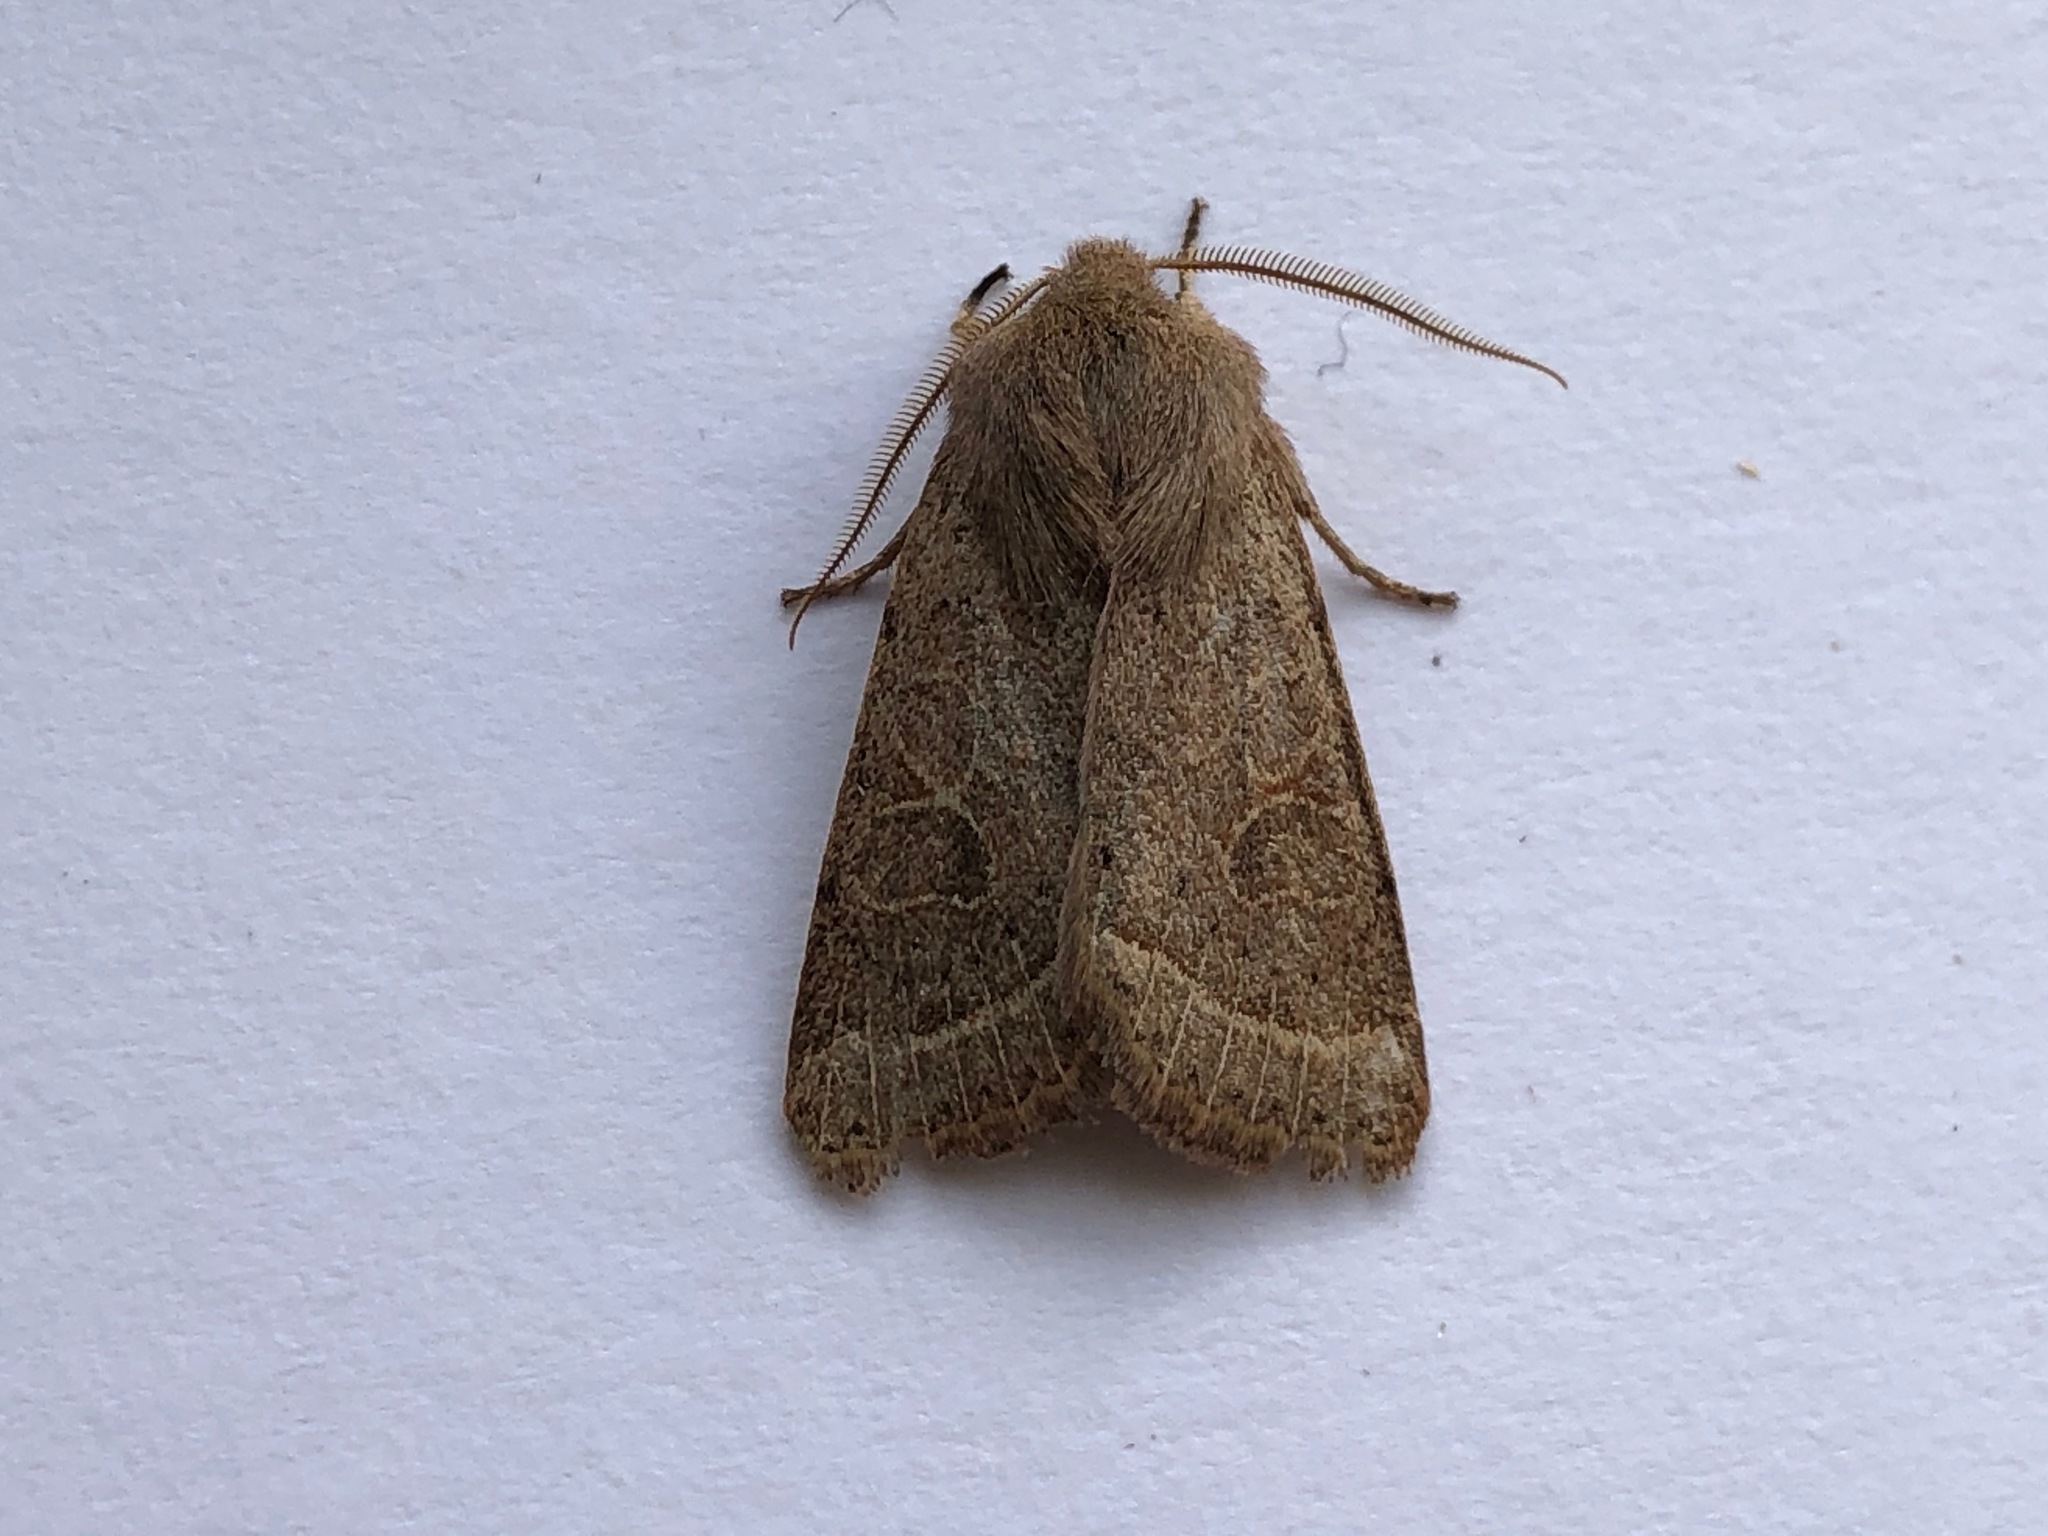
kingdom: Animalia
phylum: Arthropoda
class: Insecta
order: Lepidoptera
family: Noctuidae
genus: Orthosia
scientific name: Orthosia cerasi
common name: Common quaker
